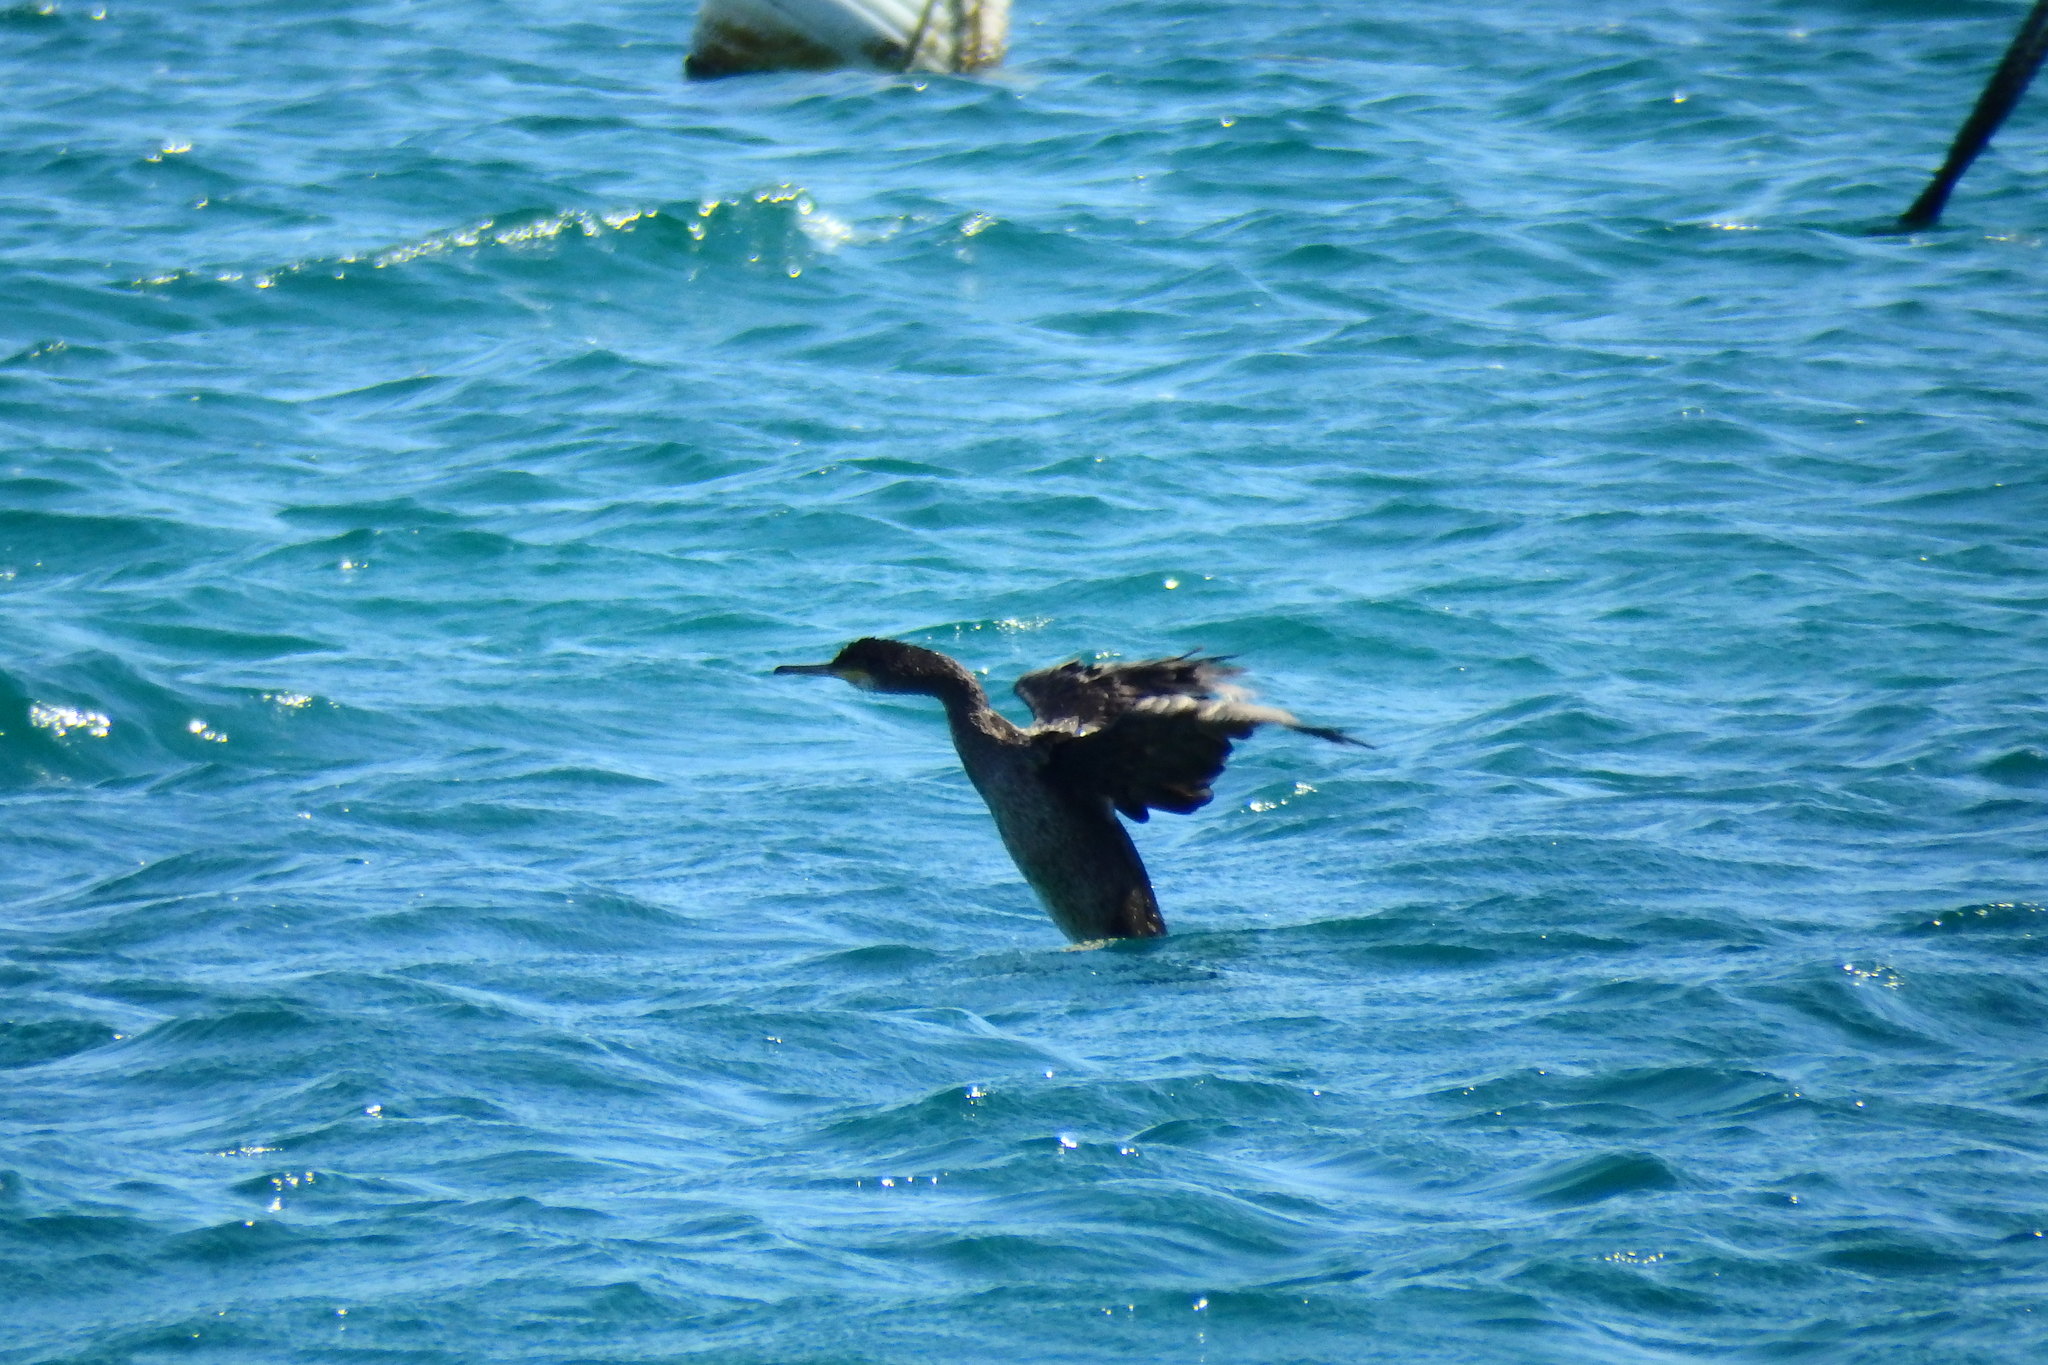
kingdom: Animalia
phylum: Chordata
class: Aves
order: Suliformes
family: Phalacrocoracidae
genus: Phalacrocorax
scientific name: Phalacrocorax aristotelis
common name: European shag
